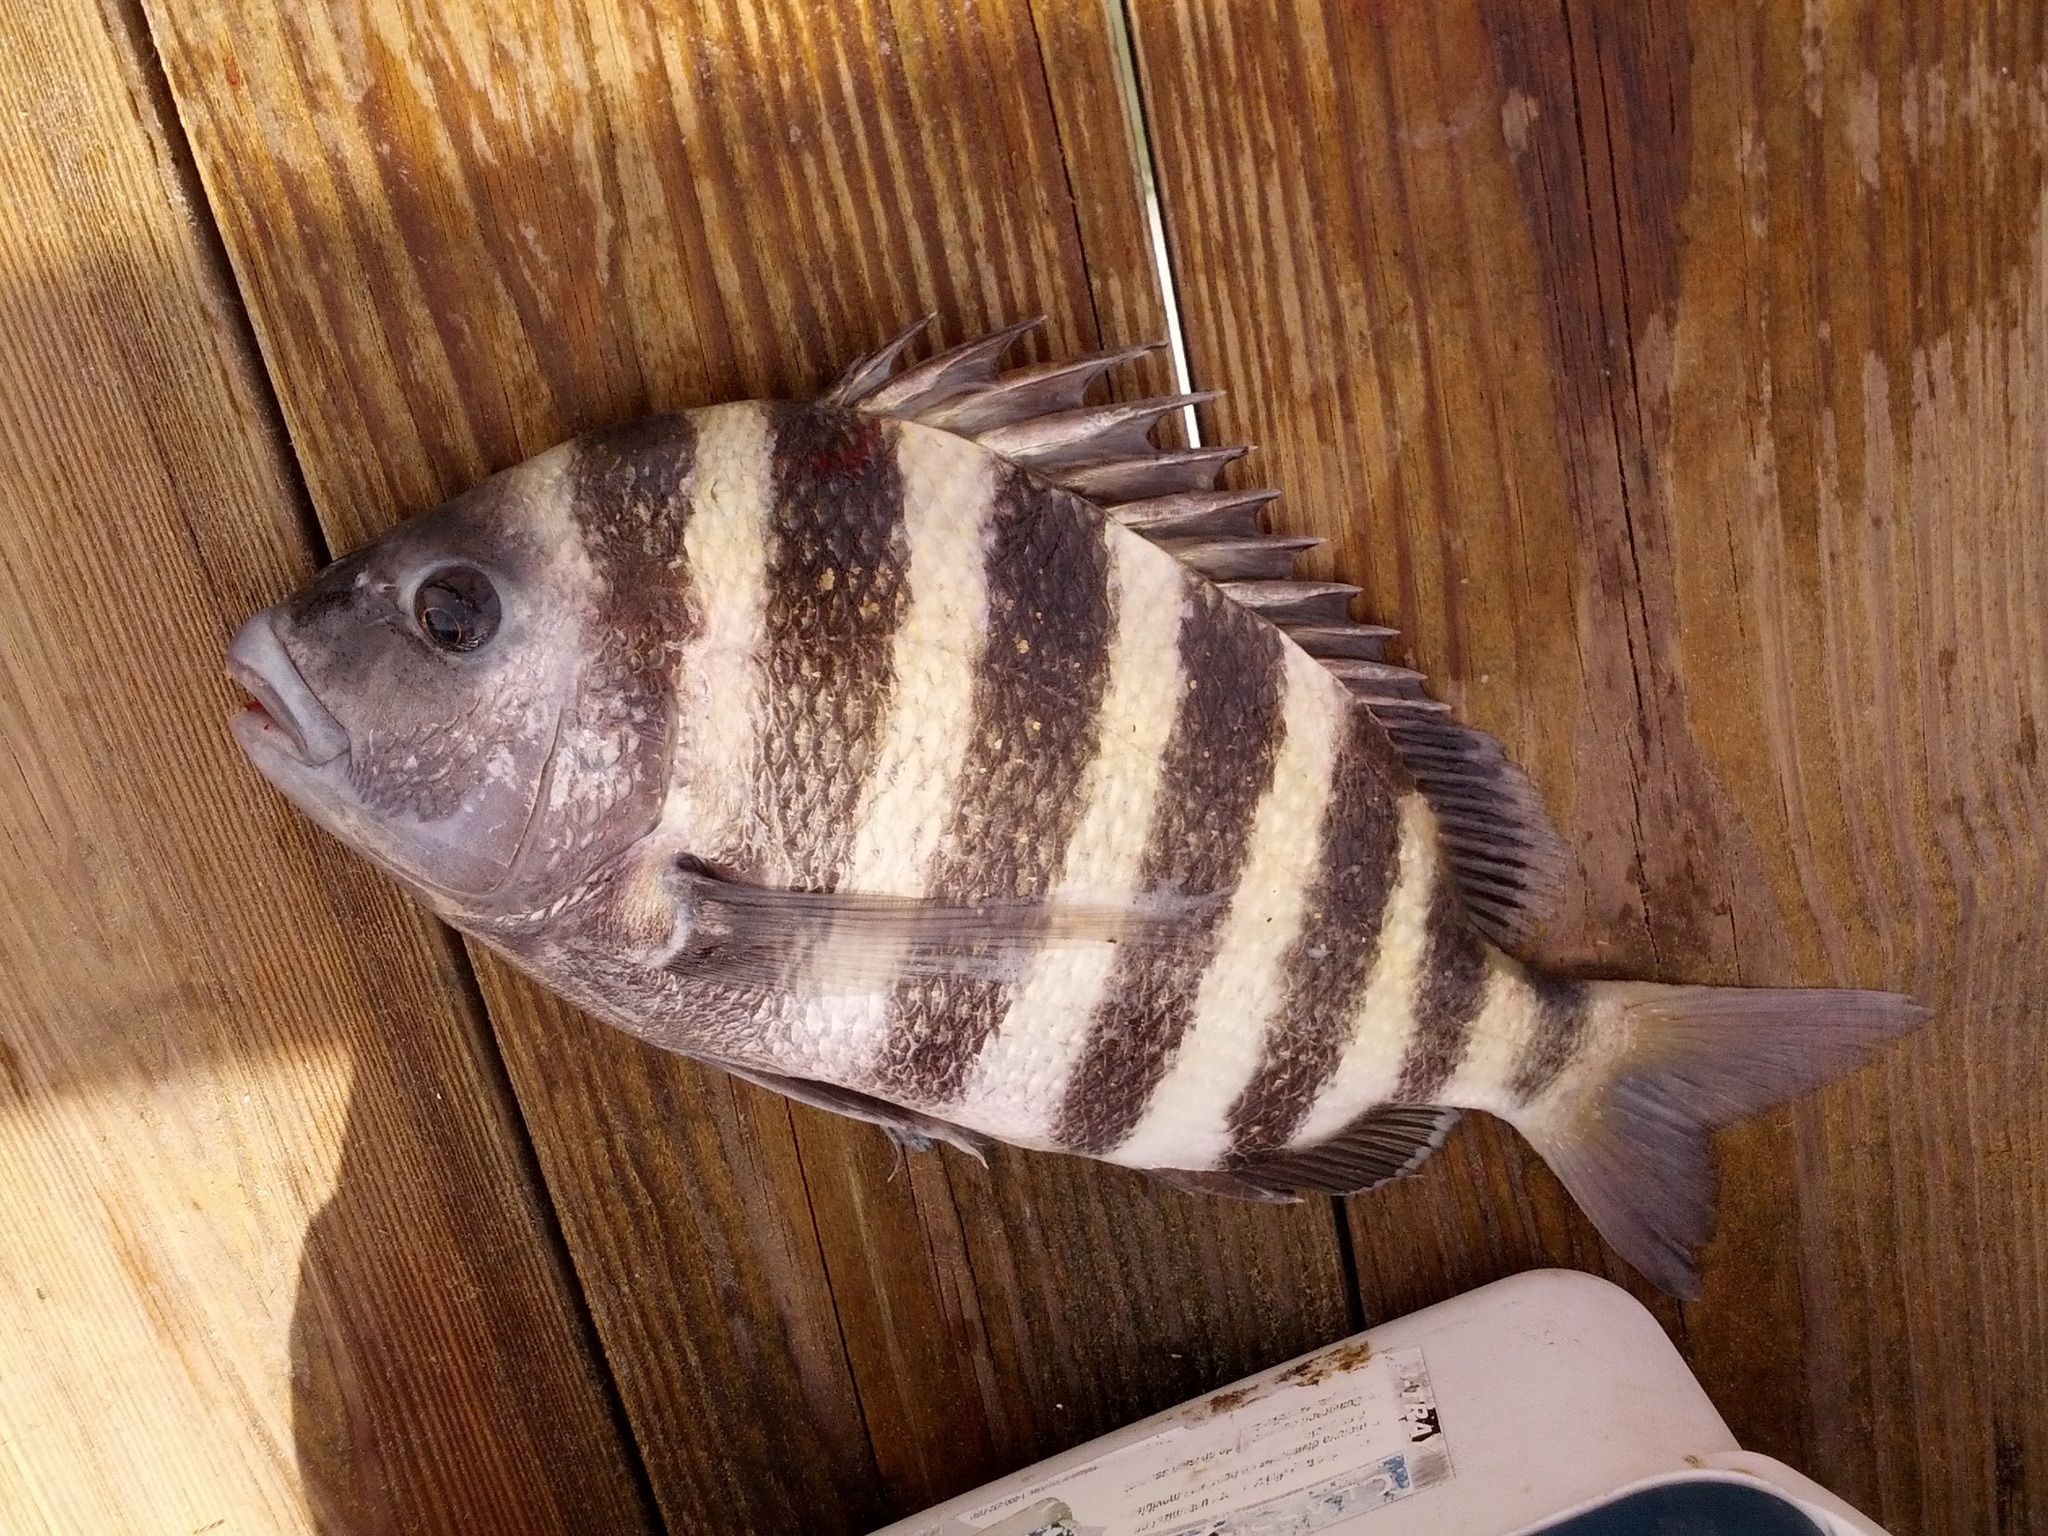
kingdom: Animalia
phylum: Chordata
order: Perciformes
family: Sparidae
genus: Archosargus
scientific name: Archosargus probatocephalus
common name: Sheepshead
